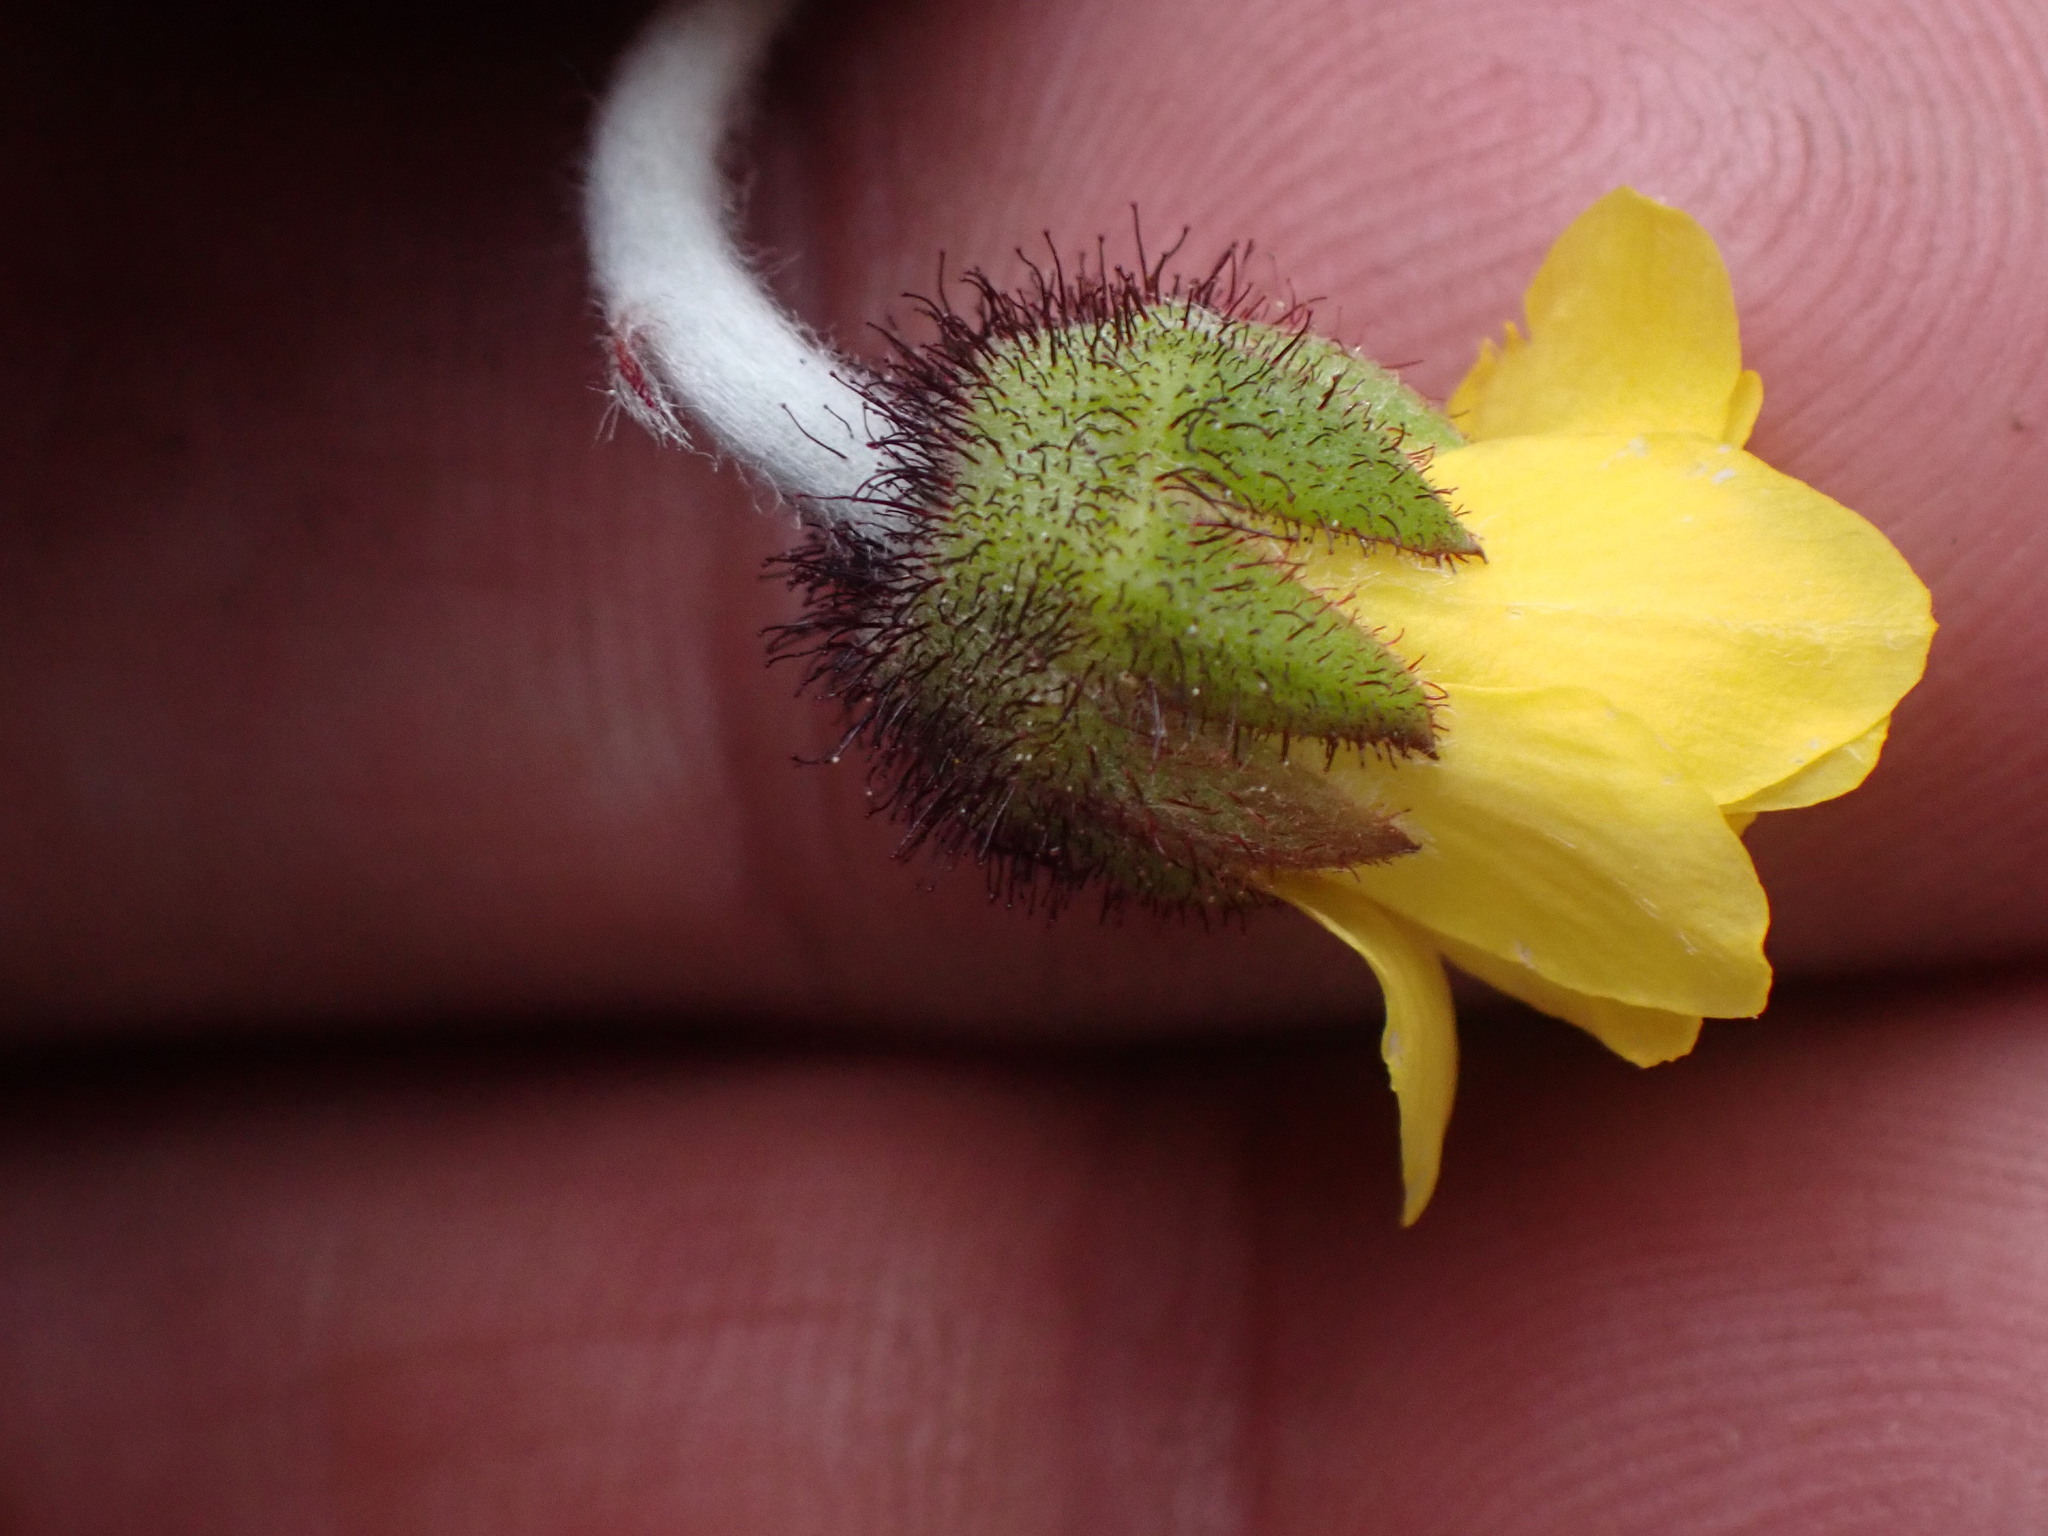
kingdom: Plantae
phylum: Tracheophyta
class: Magnoliopsida
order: Rosales
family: Rosaceae
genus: Dryas
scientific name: Dryas drummondii
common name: Drummond's dryad
